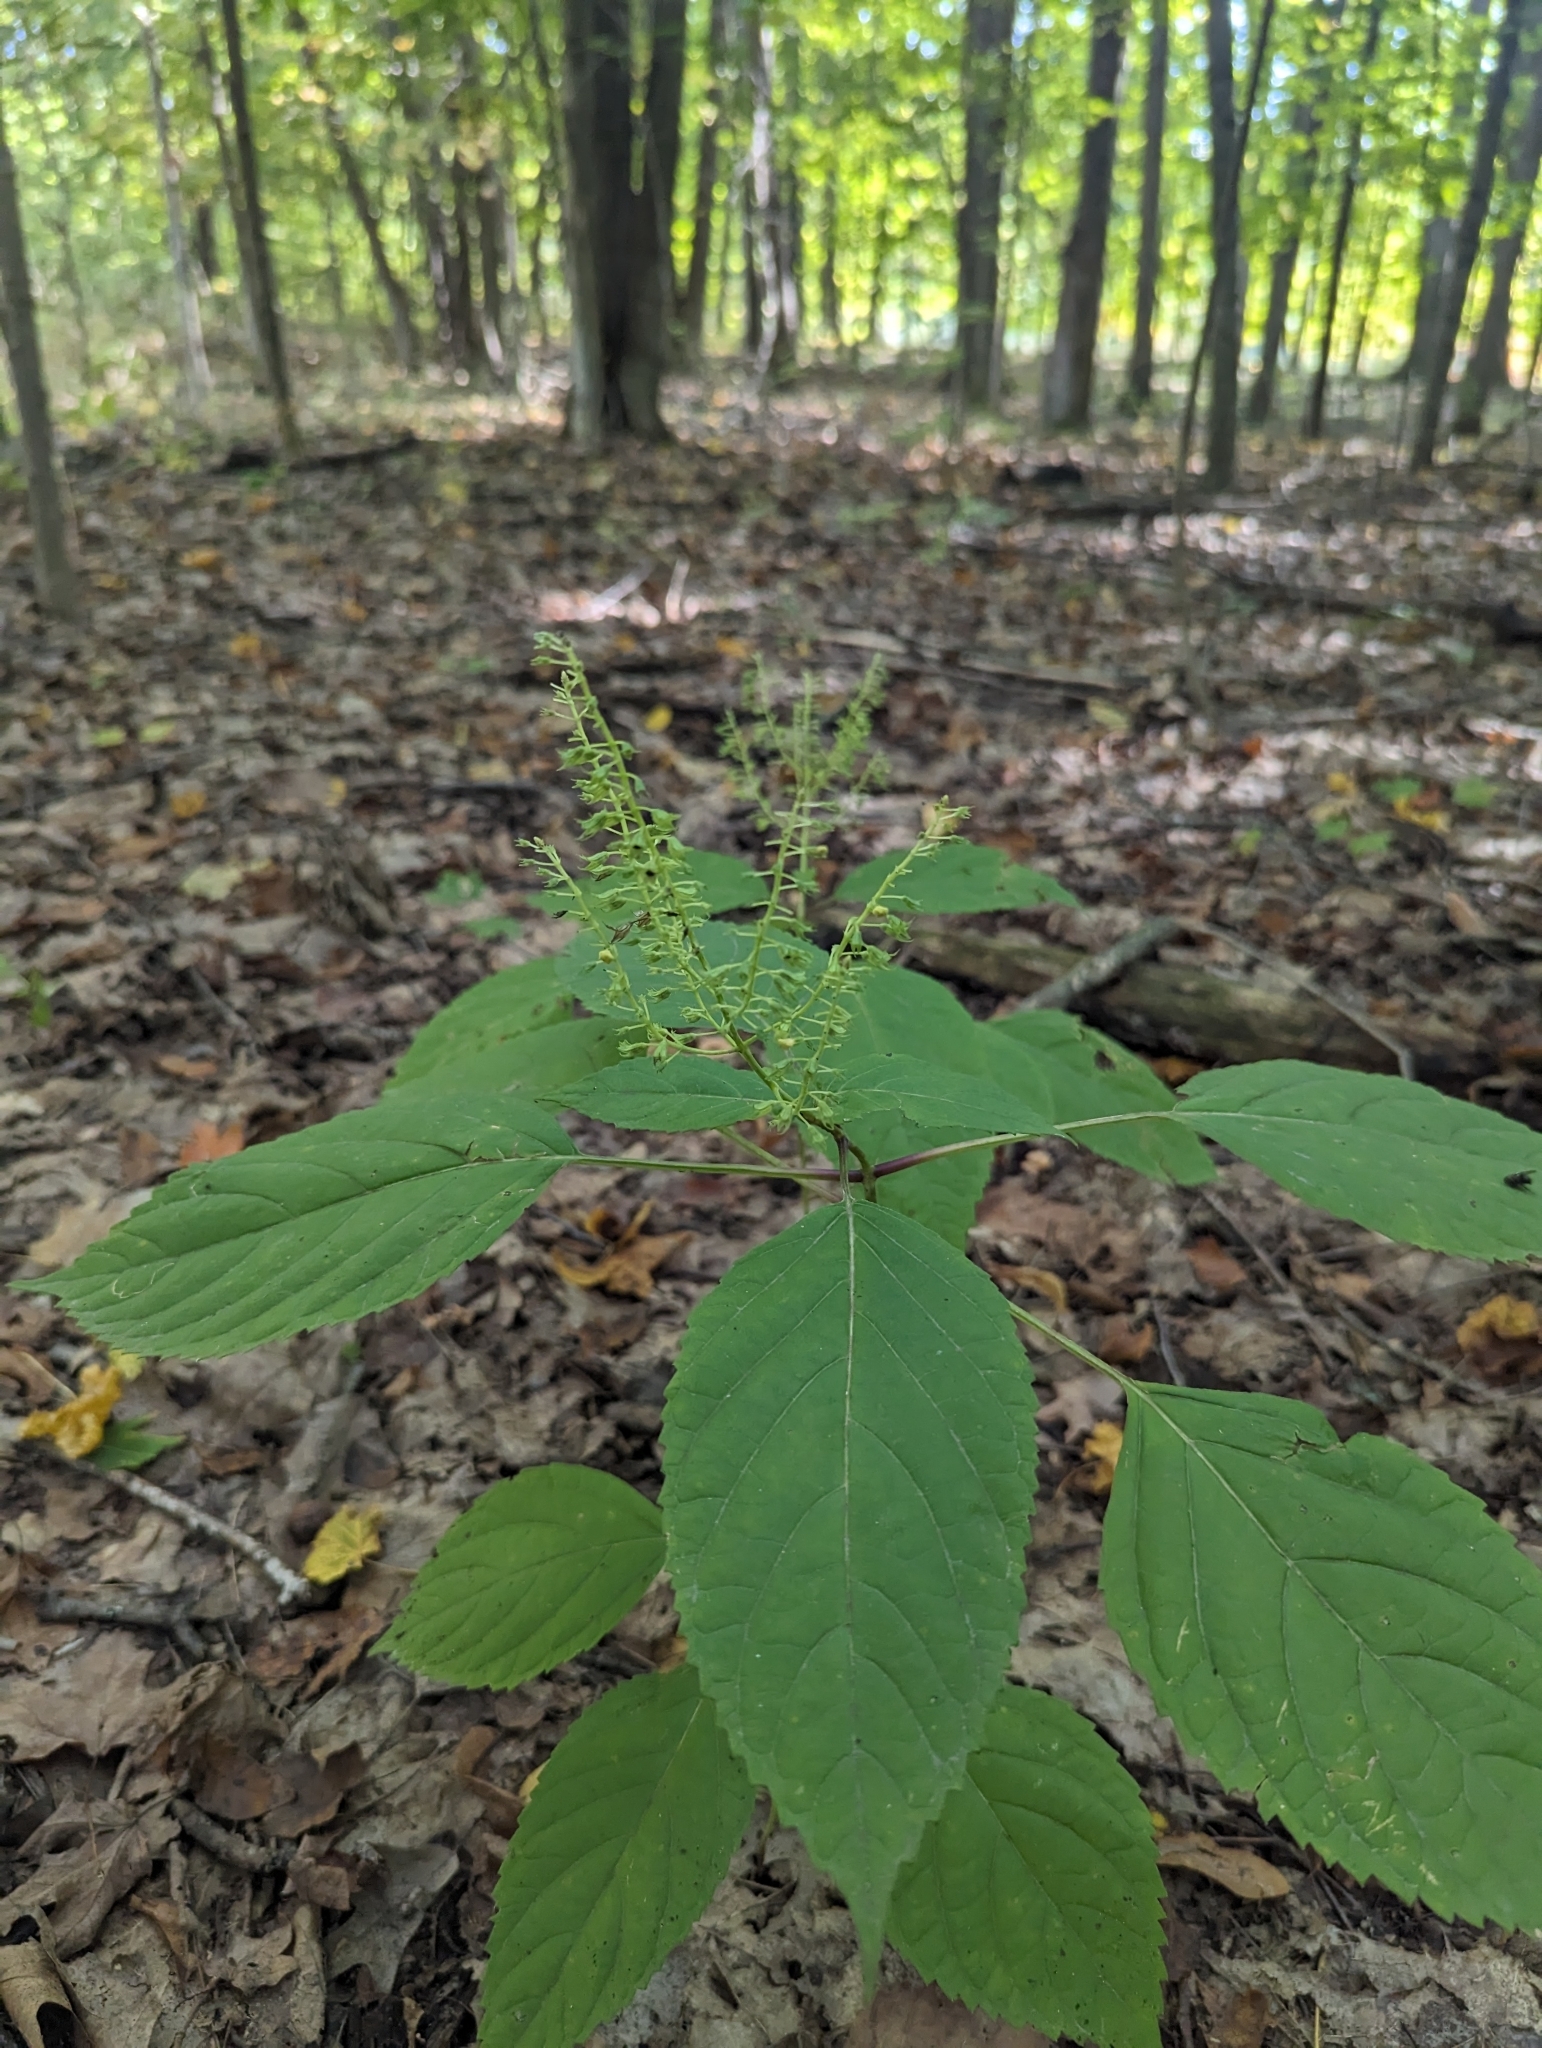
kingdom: Plantae
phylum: Tracheophyta
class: Magnoliopsida
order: Lamiales
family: Lamiaceae
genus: Collinsonia
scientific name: Collinsonia canadensis
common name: Northern horsebalm
